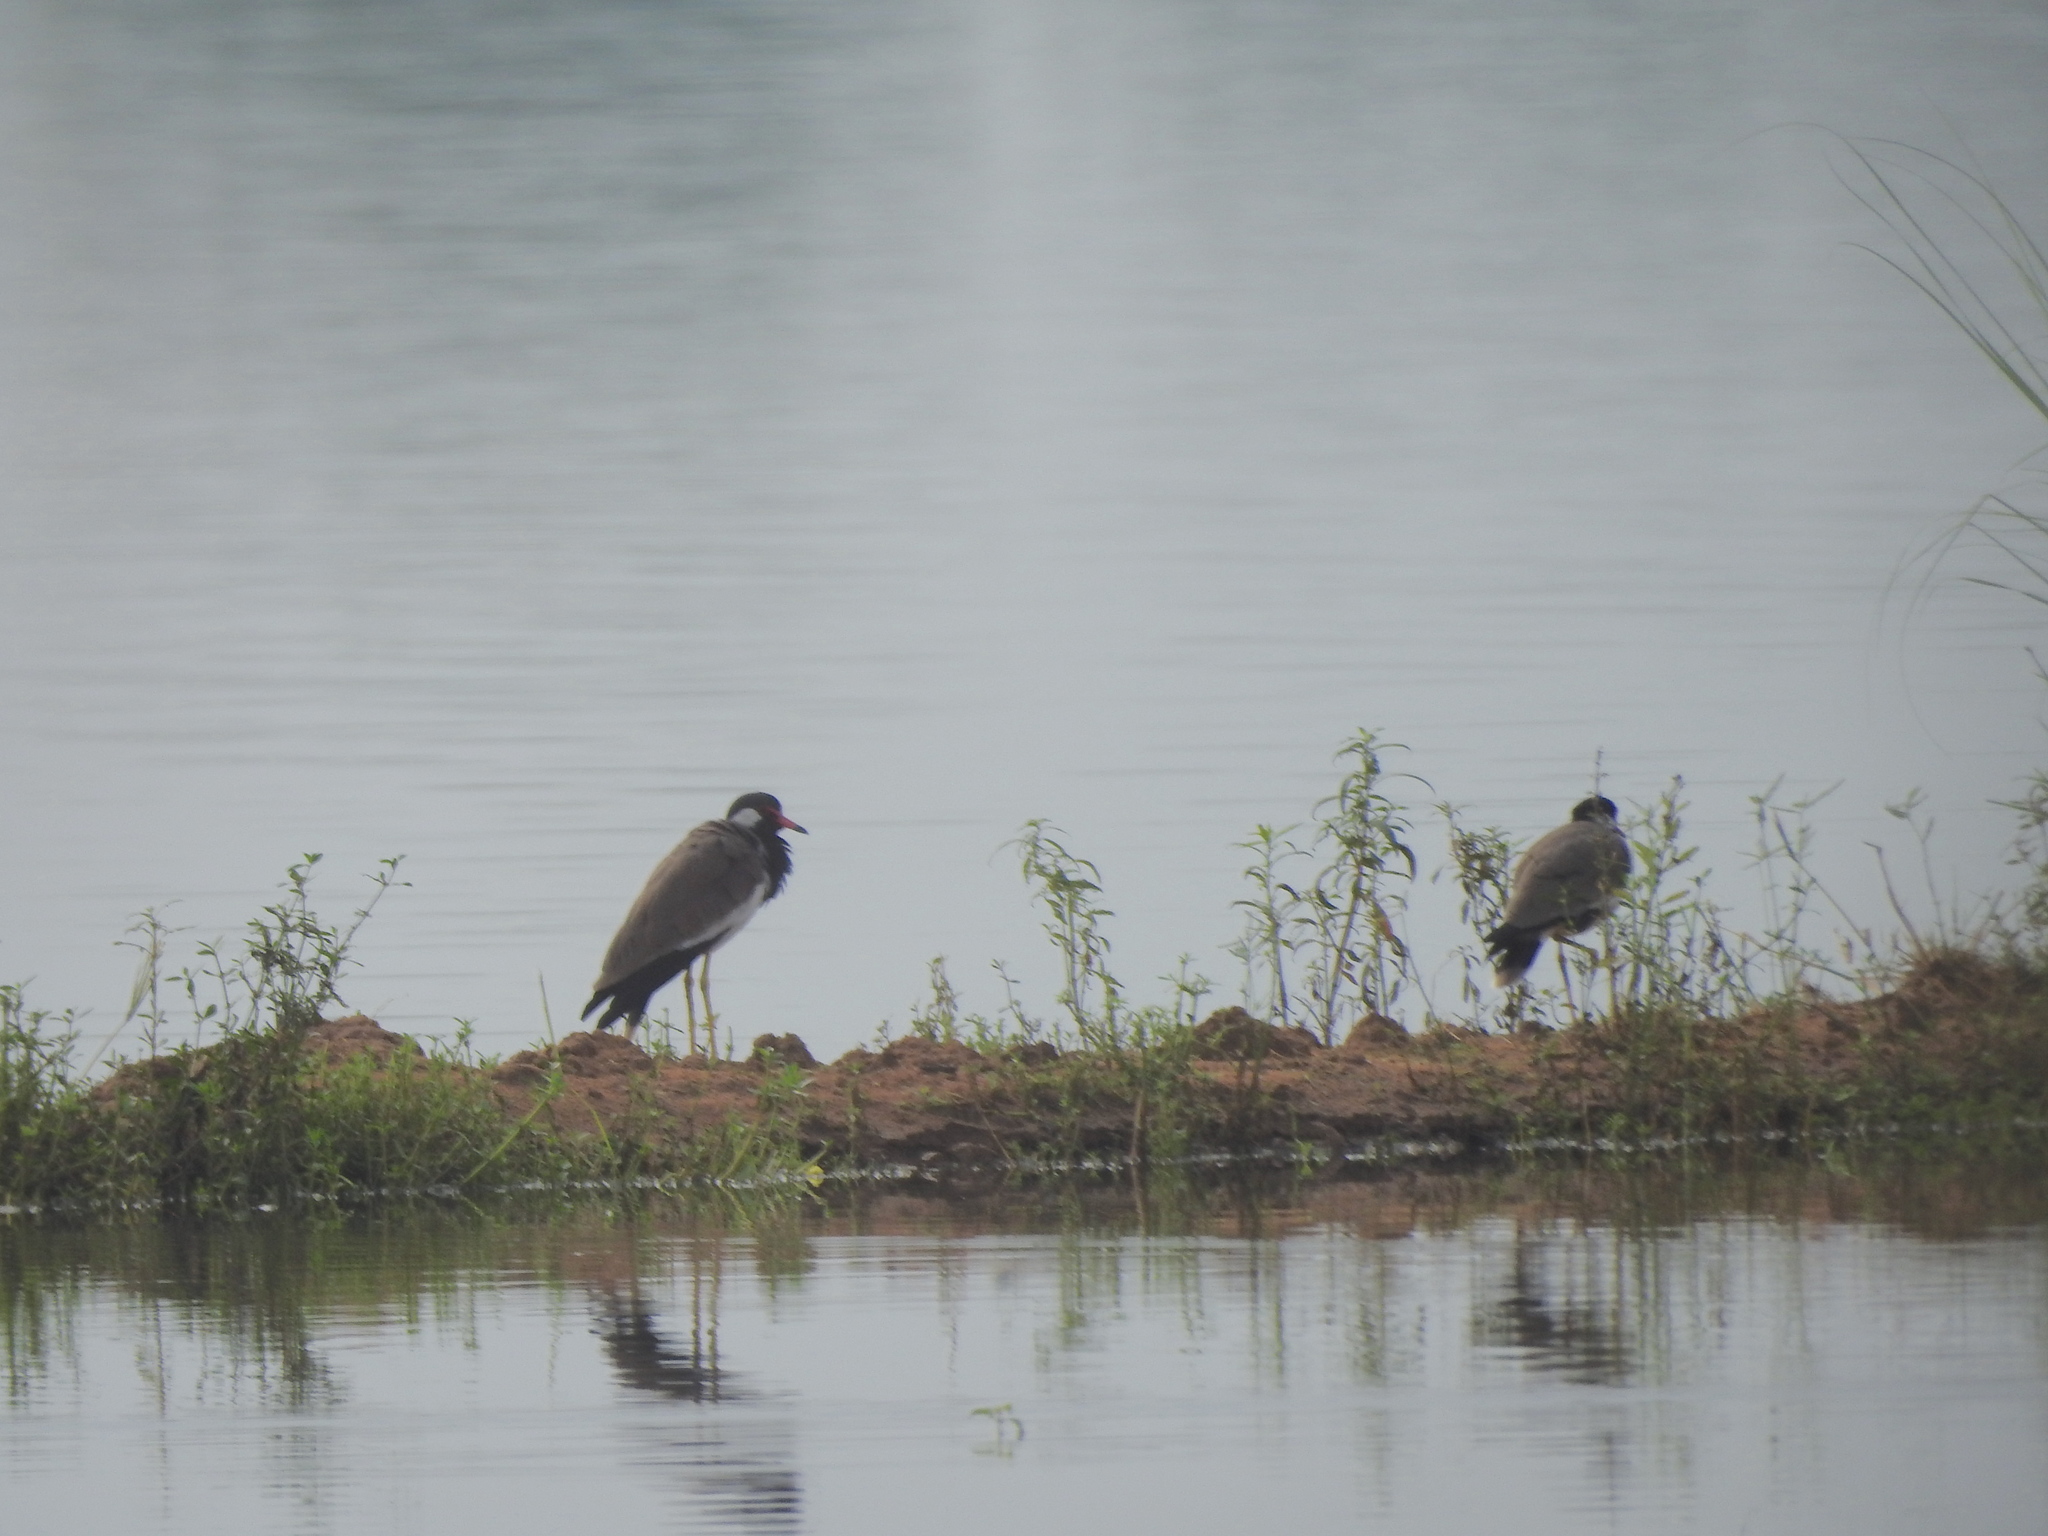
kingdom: Animalia
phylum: Chordata
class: Aves
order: Charadriiformes
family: Charadriidae
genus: Vanellus
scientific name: Vanellus indicus
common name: Red-wattled lapwing
